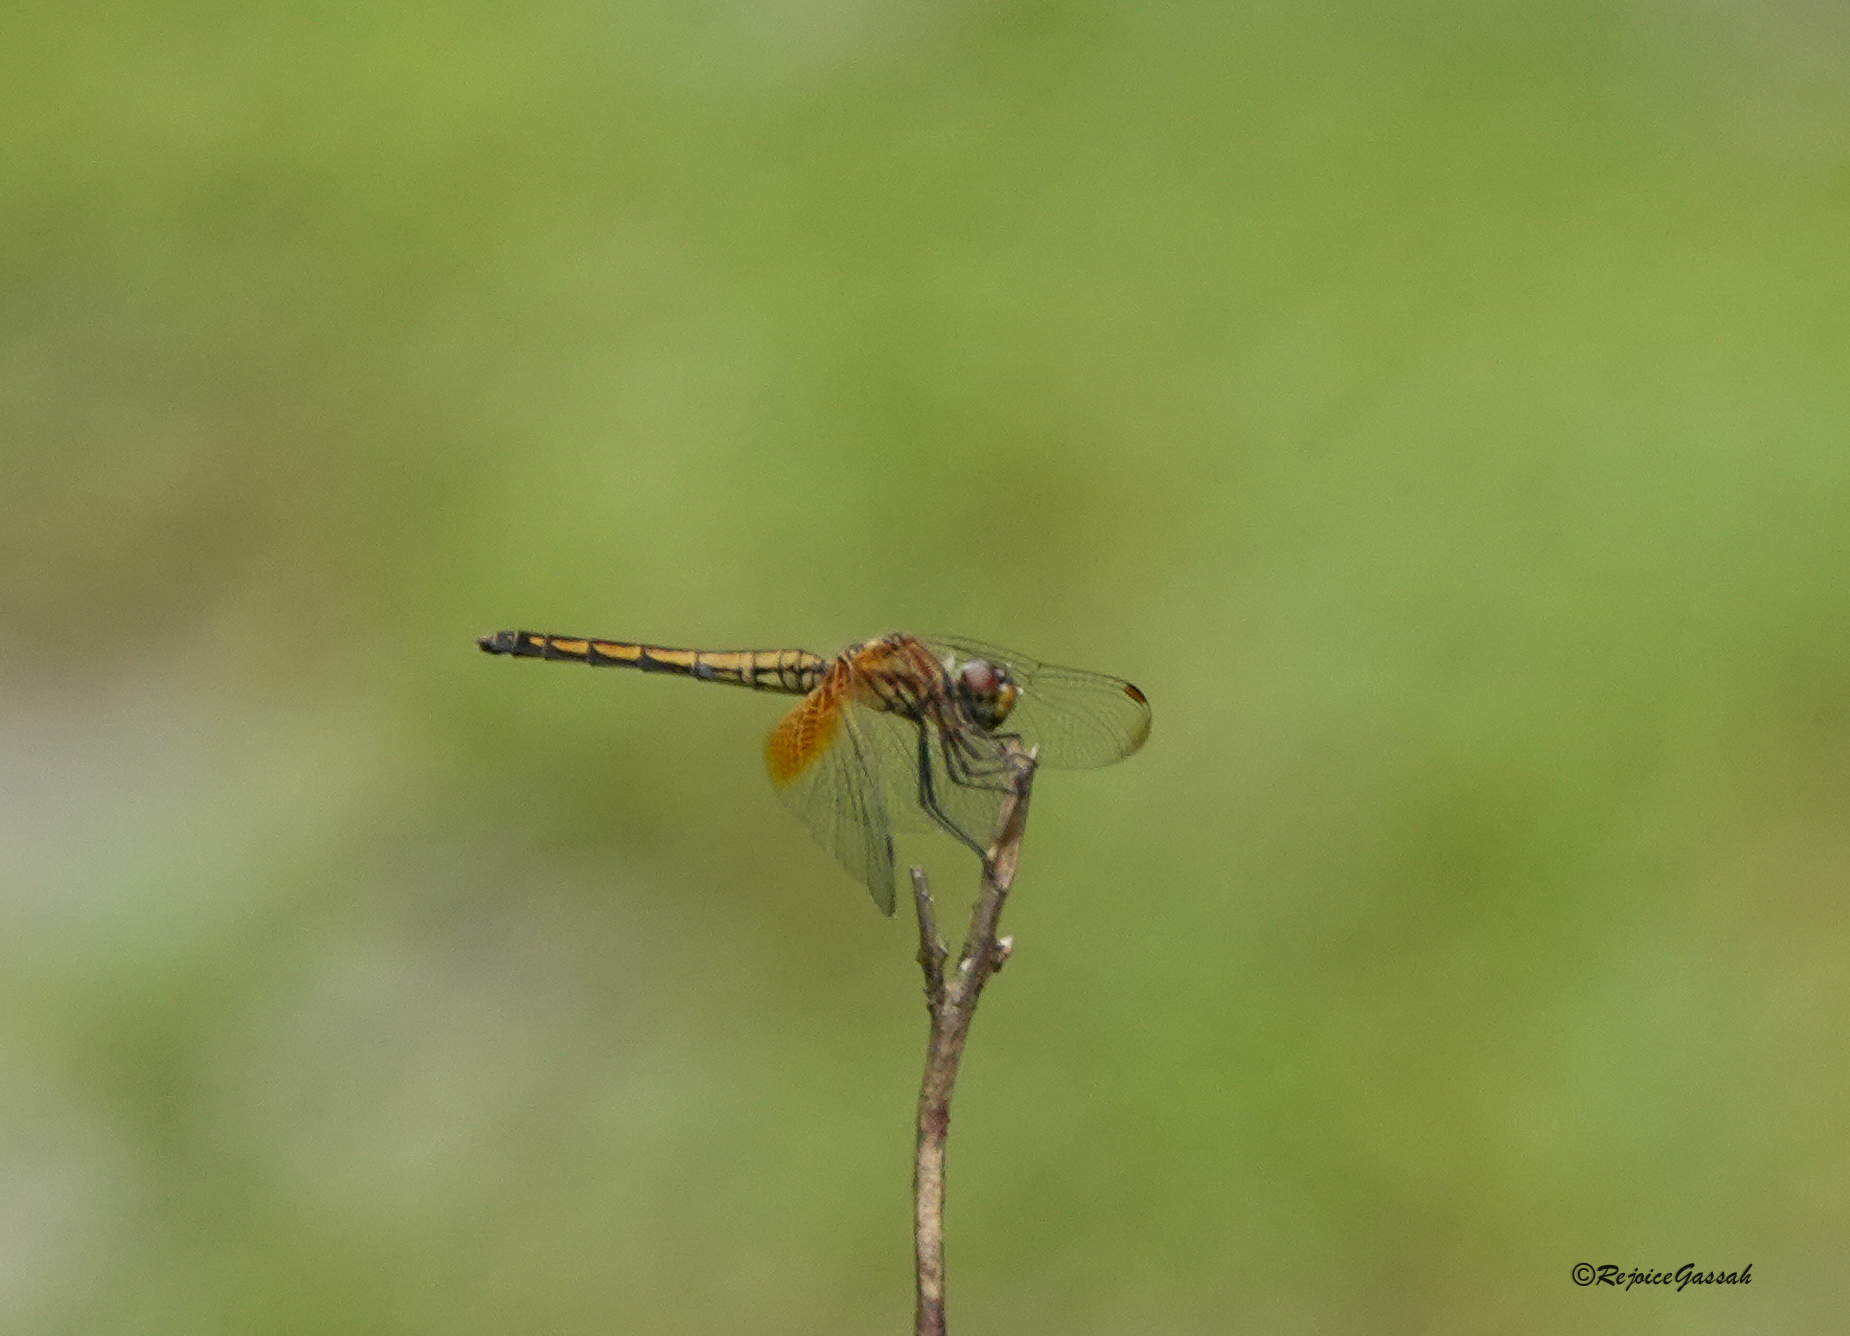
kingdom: Animalia
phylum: Arthropoda
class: Insecta
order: Odonata
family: Libellulidae
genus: Trithemis
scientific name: Trithemis aurora
